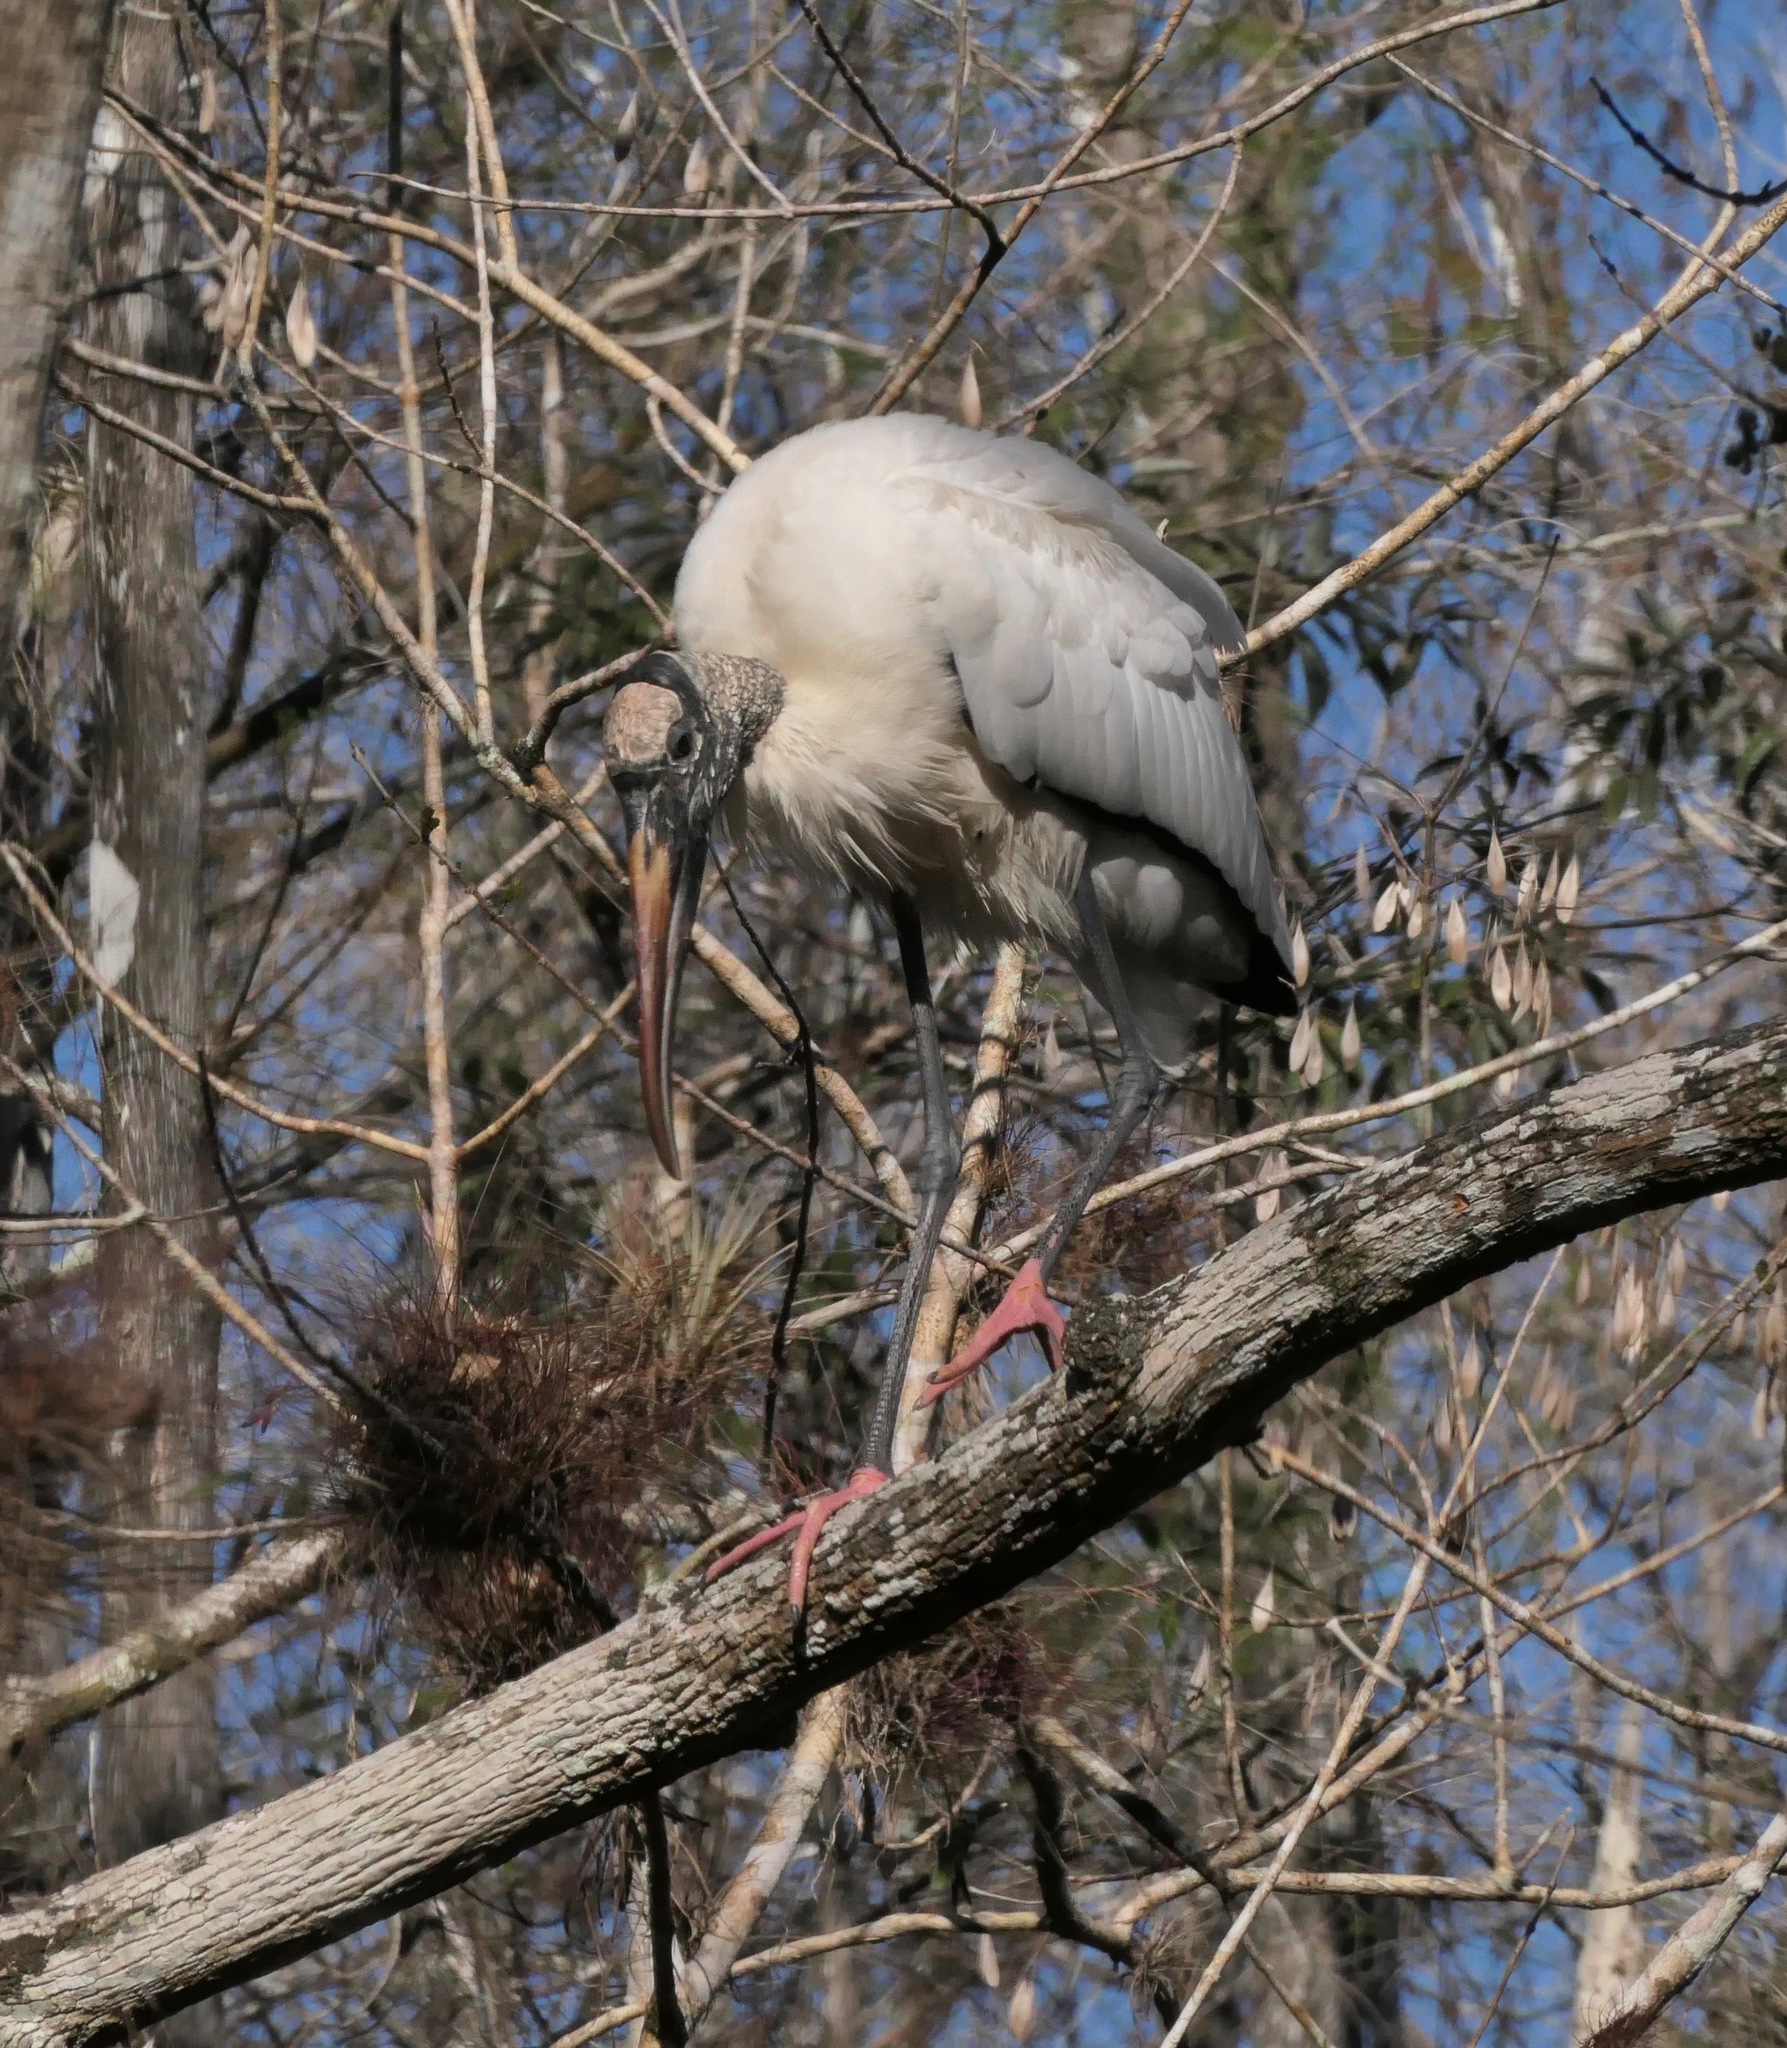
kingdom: Animalia
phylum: Chordata
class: Aves
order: Ciconiiformes
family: Ciconiidae
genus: Mycteria
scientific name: Mycteria americana
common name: Wood stork
